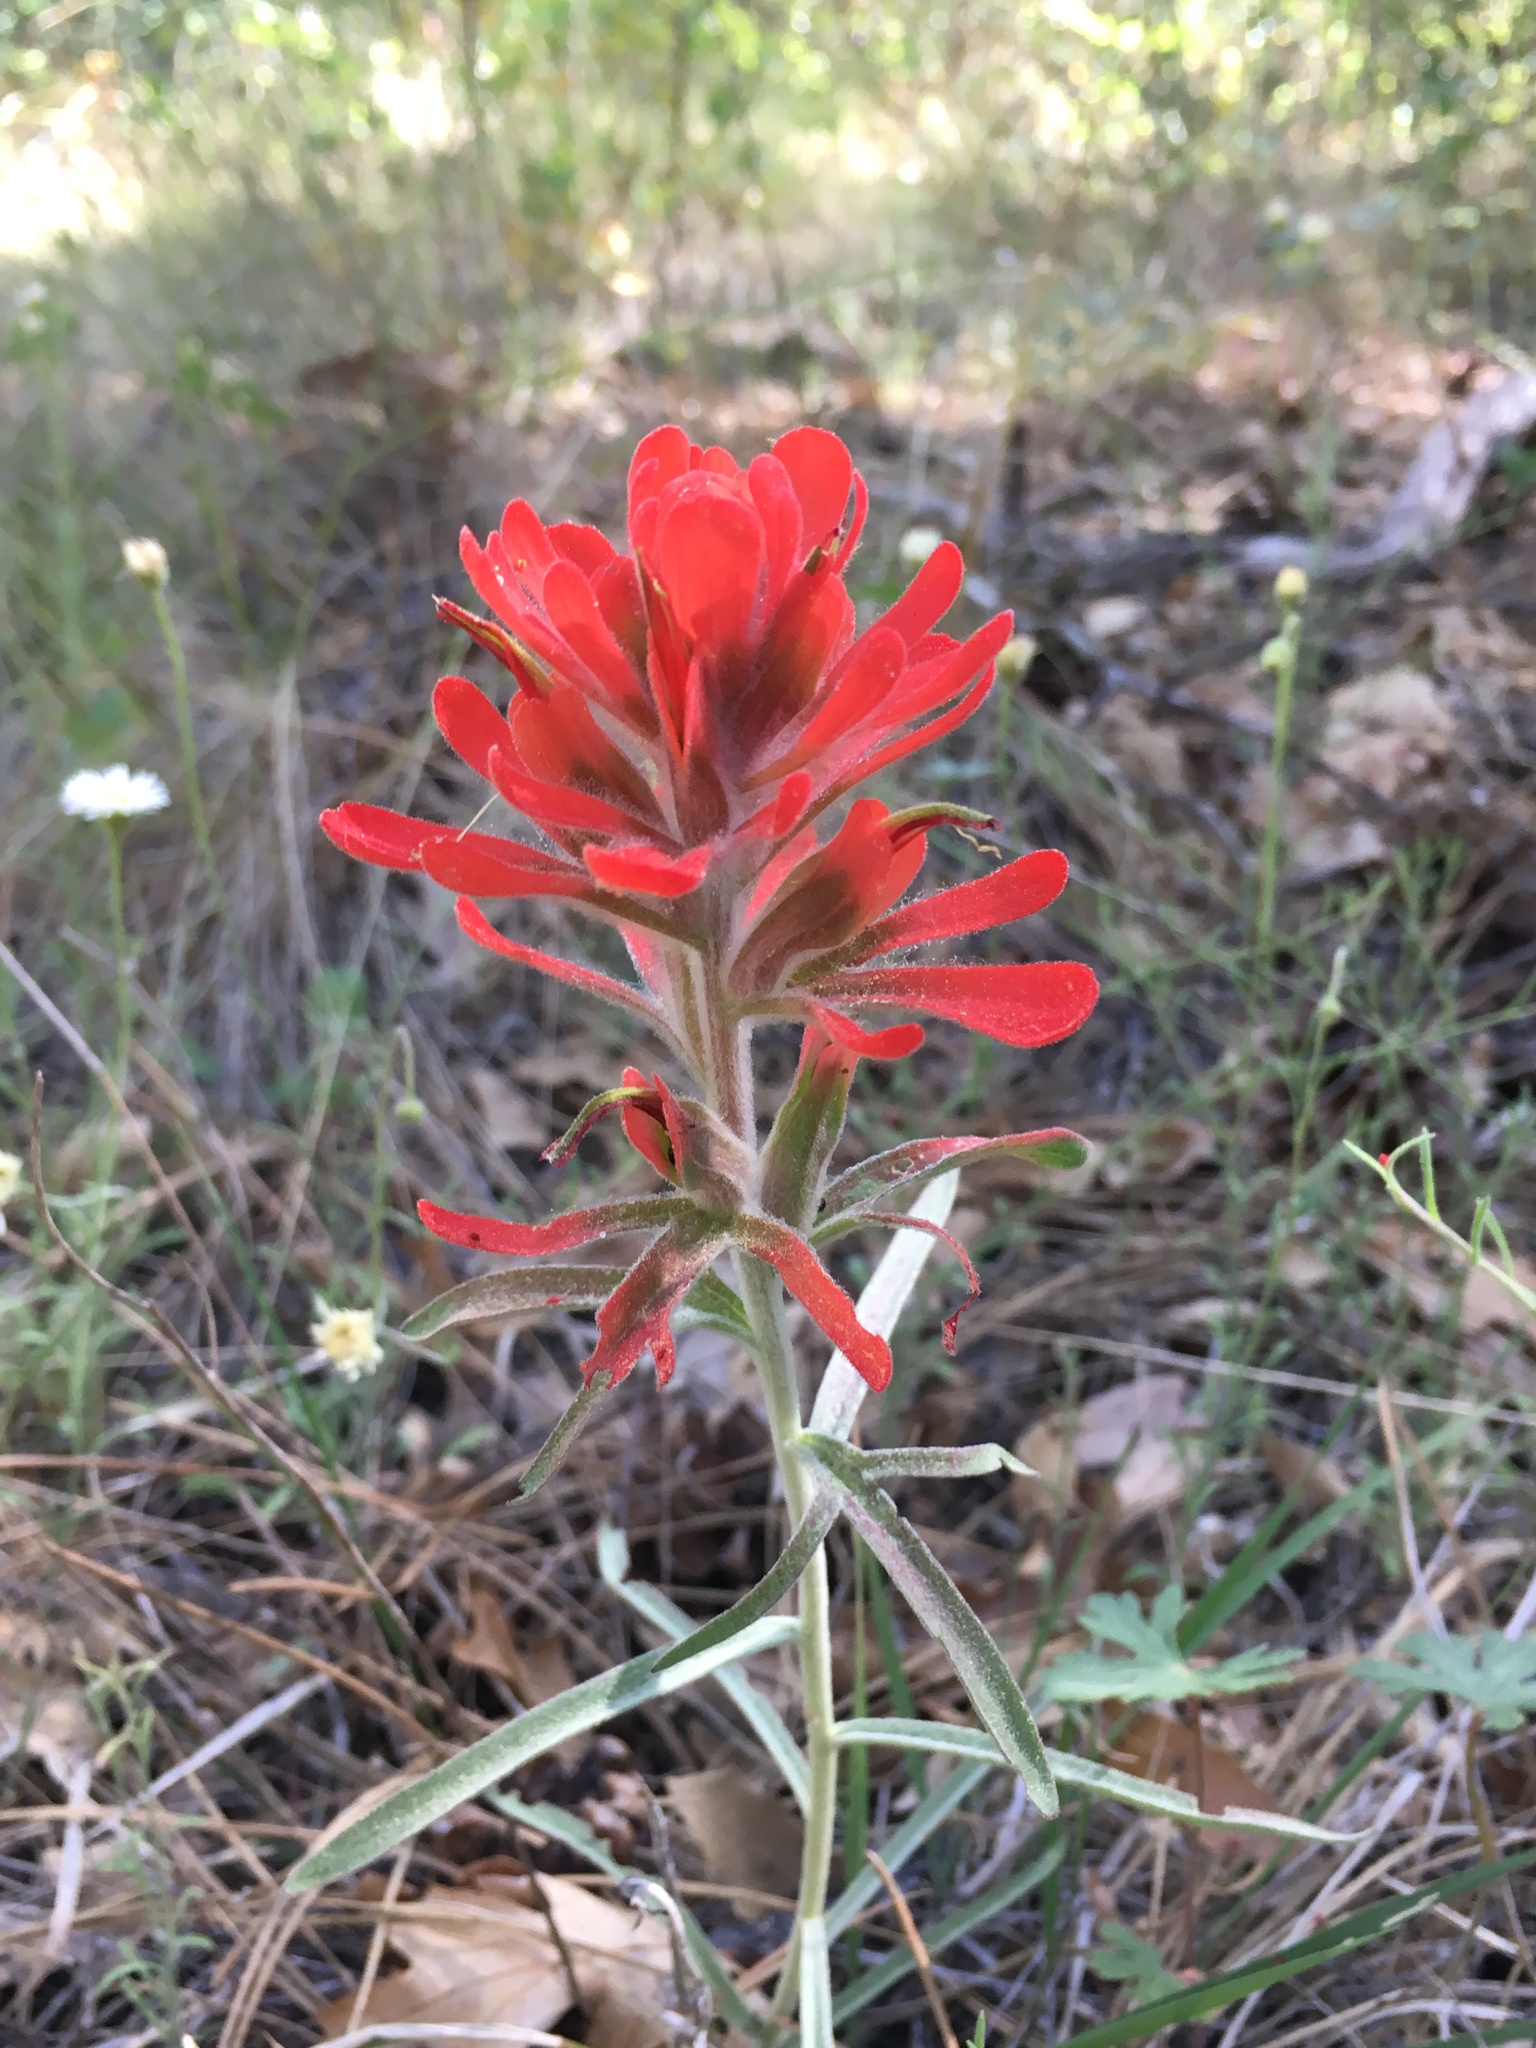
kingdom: Plantae
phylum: Tracheophyta
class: Magnoliopsida
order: Lamiales
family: Orobanchaceae
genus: Castilleja
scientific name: Castilleja lanata
